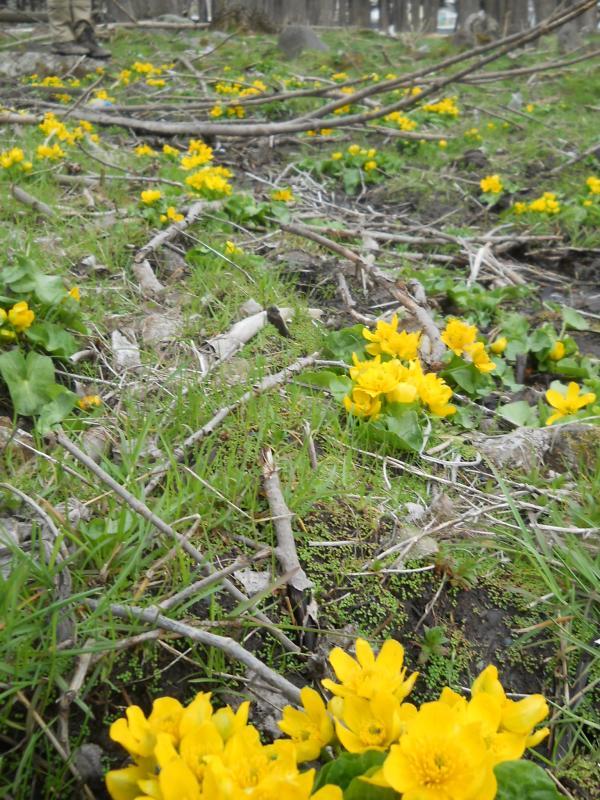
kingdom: Plantae
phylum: Tracheophyta
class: Magnoliopsida
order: Ranunculales
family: Ranunculaceae
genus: Caltha
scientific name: Caltha palustris
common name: Marsh marigold
